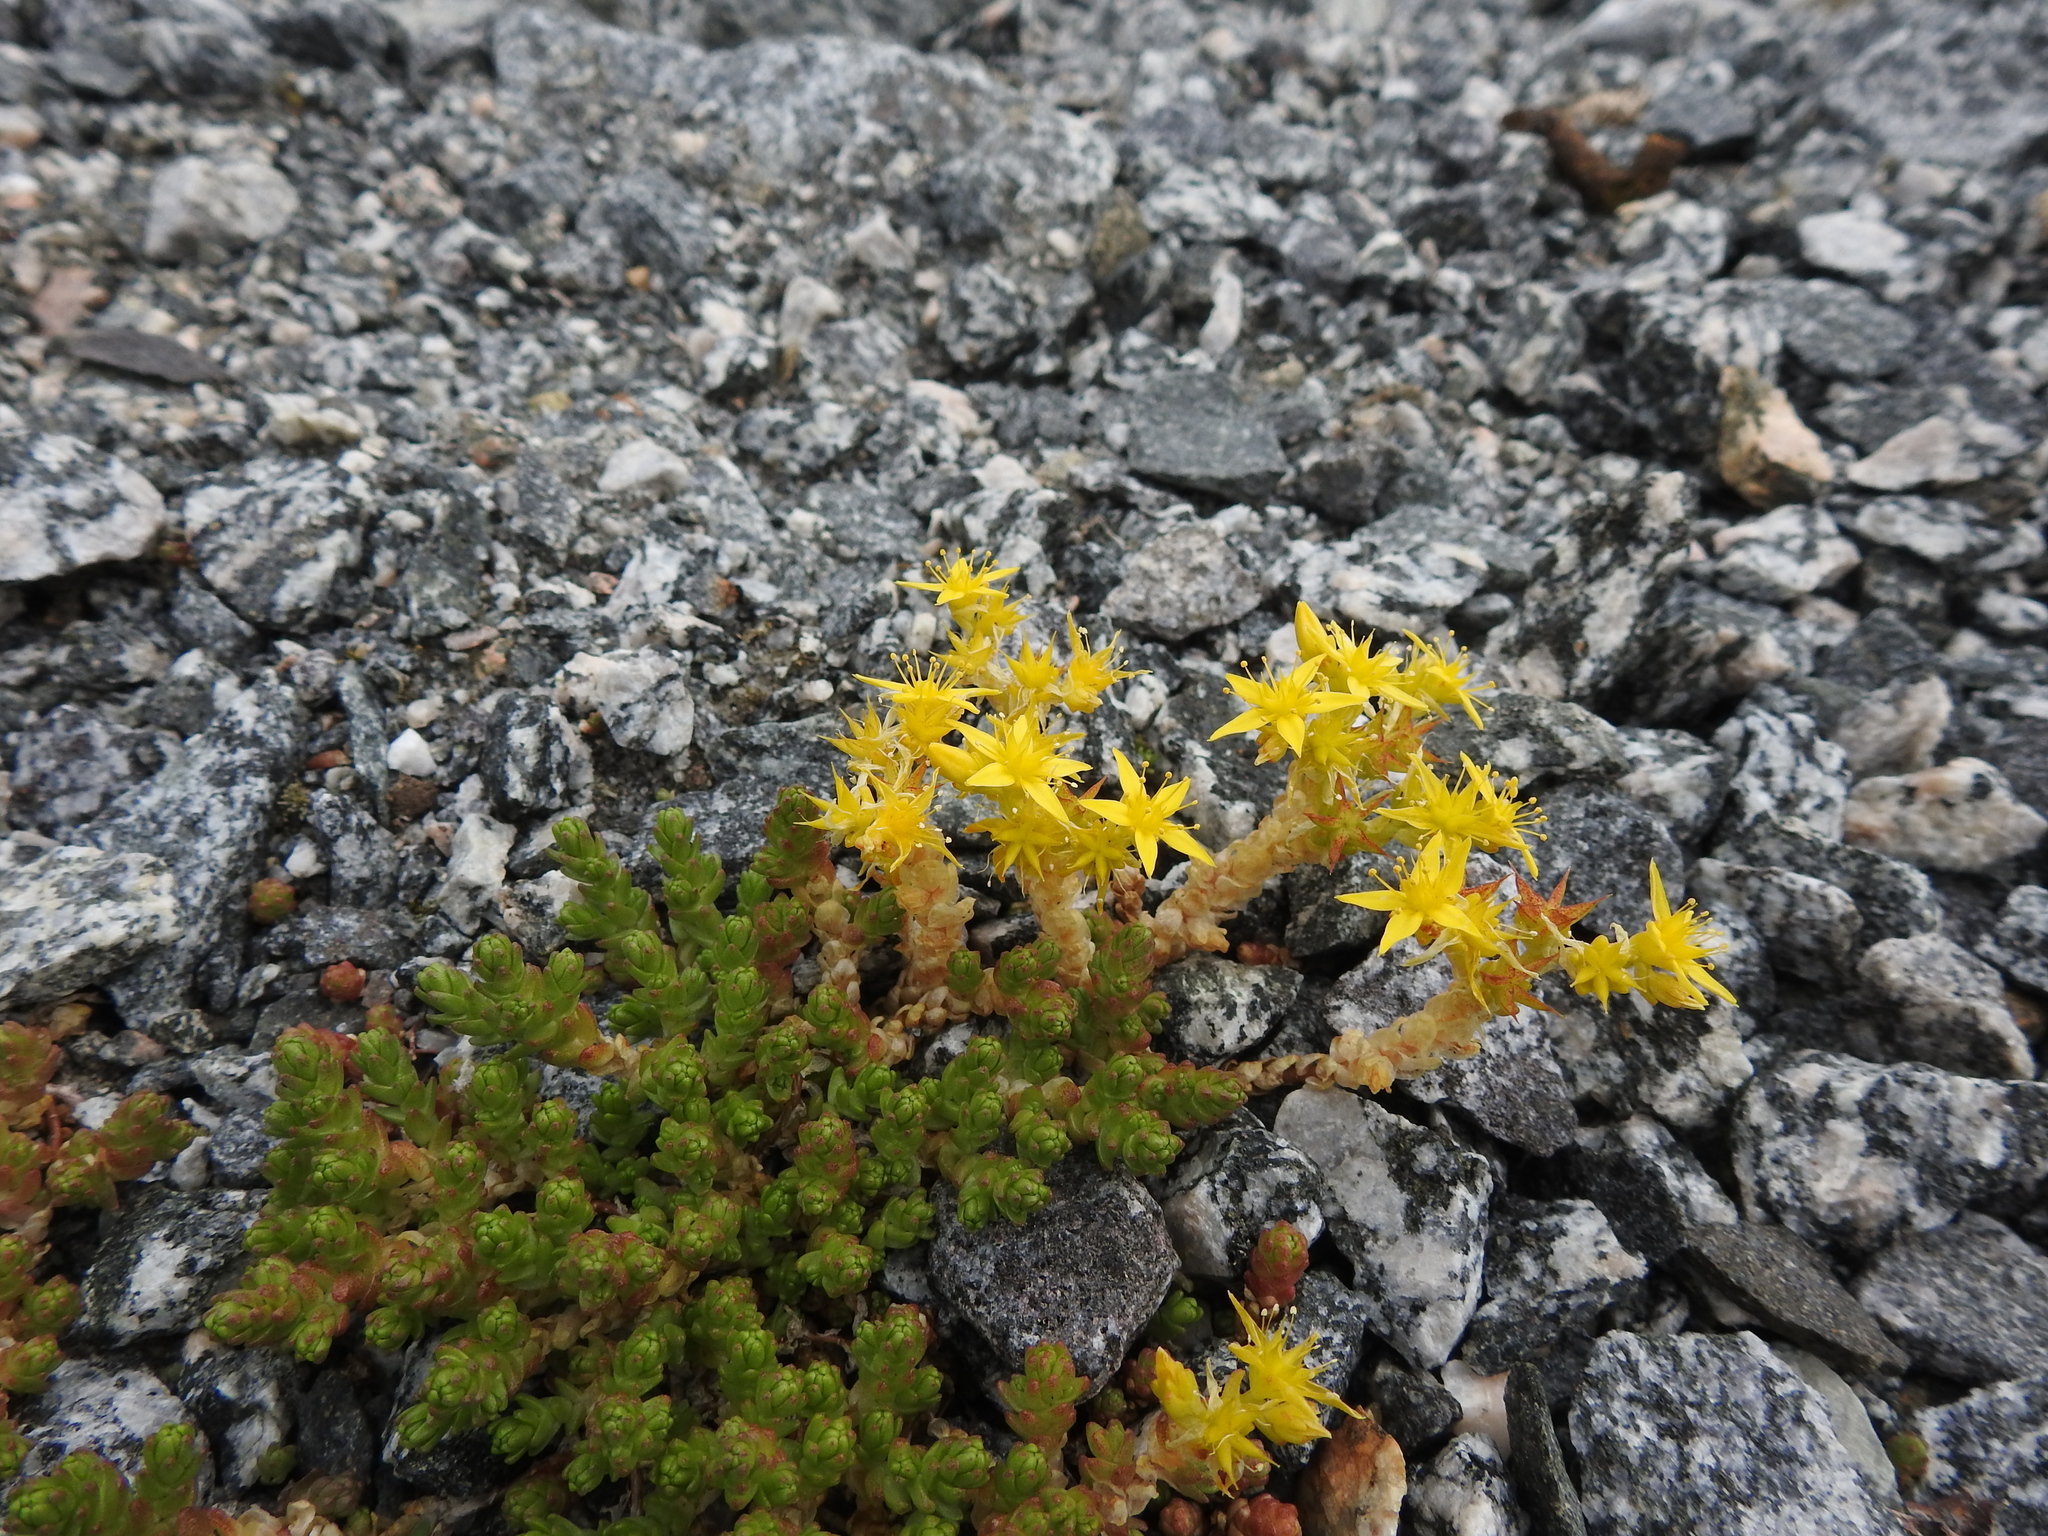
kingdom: Plantae
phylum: Tracheophyta
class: Magnoliopsida
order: Saxifragales
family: Crassulaceae
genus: Sedum
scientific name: Sedum acre
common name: Biting stonecrop
